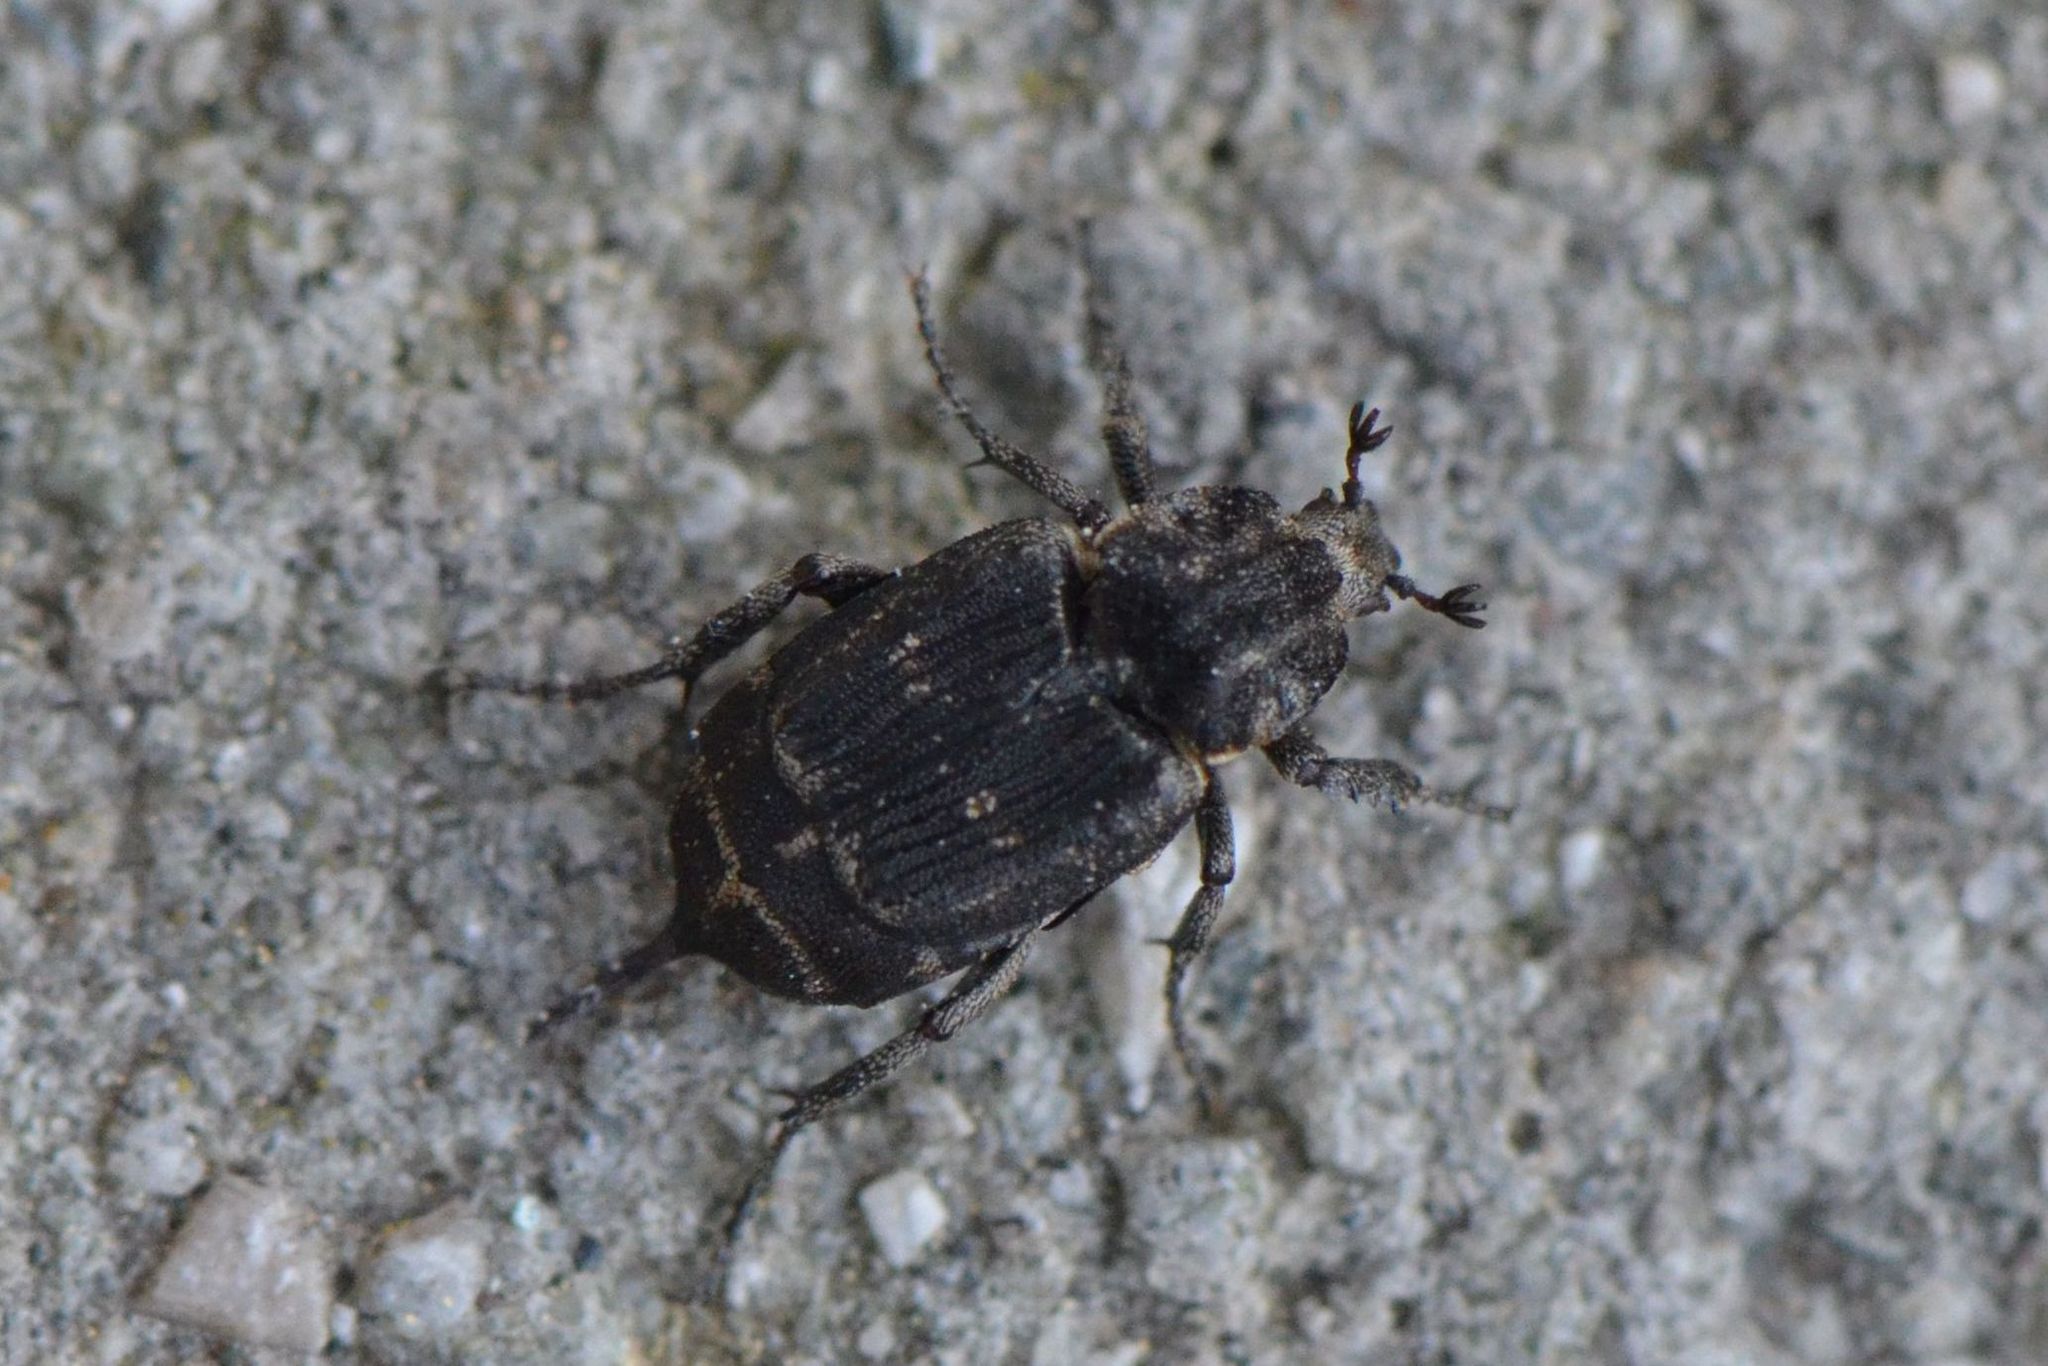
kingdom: Animalia
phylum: Arthropoda
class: Insecta
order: Coleoptera
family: Scarabaeidae
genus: Valgus
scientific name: Valgus hemipterus
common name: Bug flower chafer
